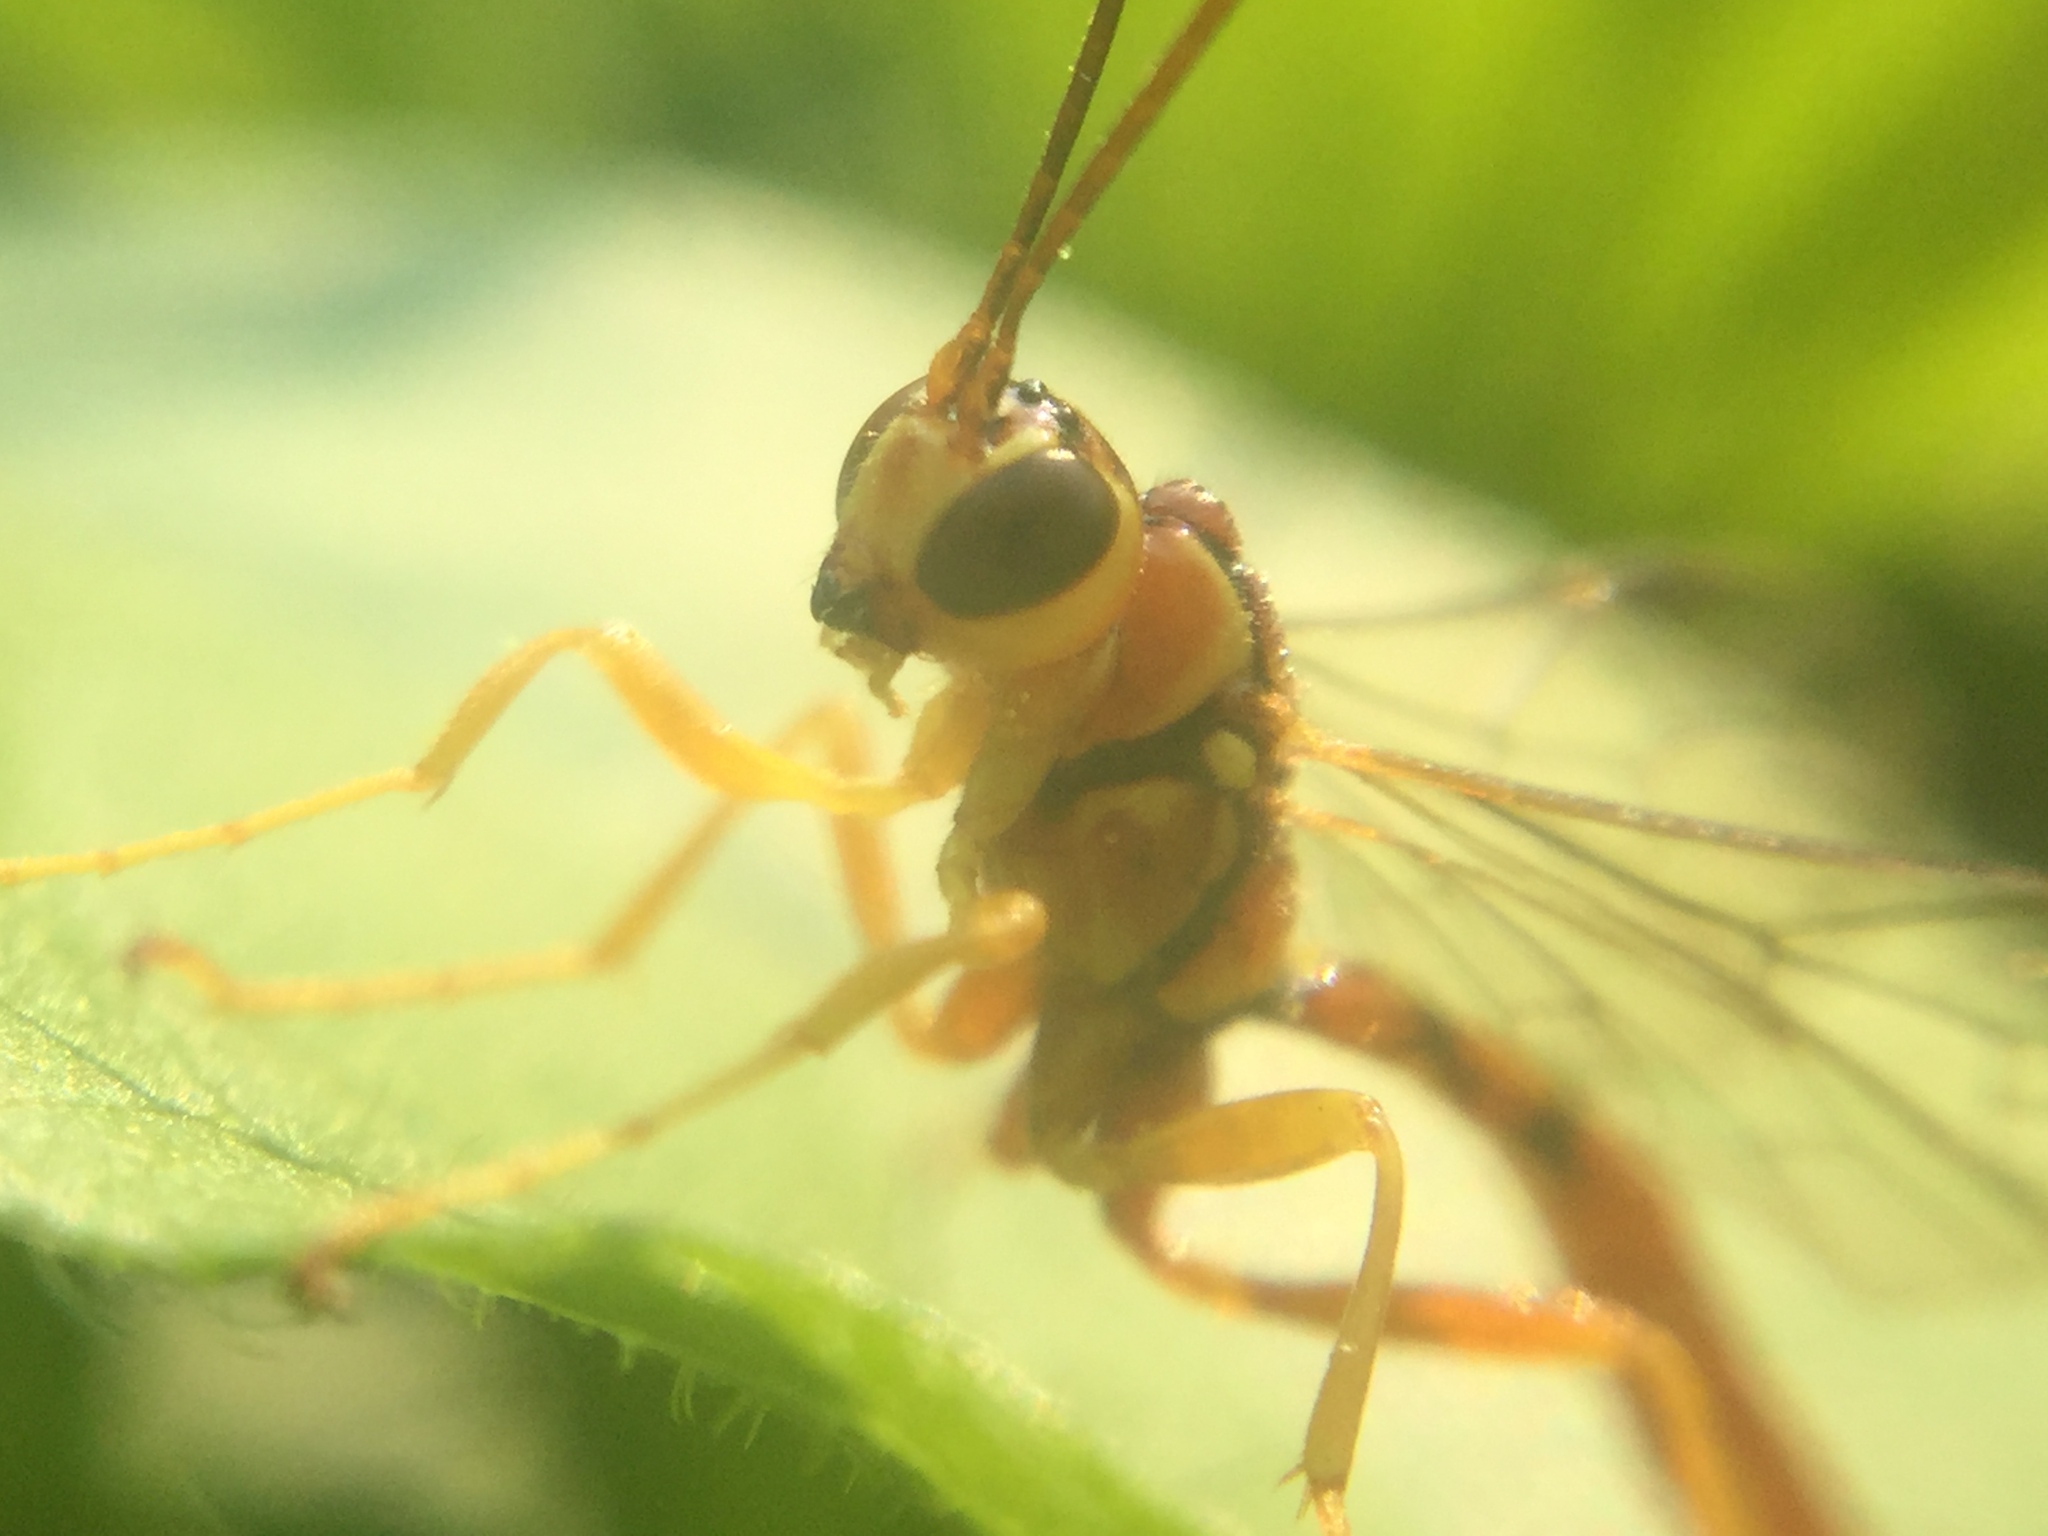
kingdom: Animalia
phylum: Arthropoda
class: Insecta
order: Hymenoptera
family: Ichneumonidae
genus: Megarhyssa
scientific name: Megarhyssa greenei
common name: Greene's giant ichneumonid wasp
